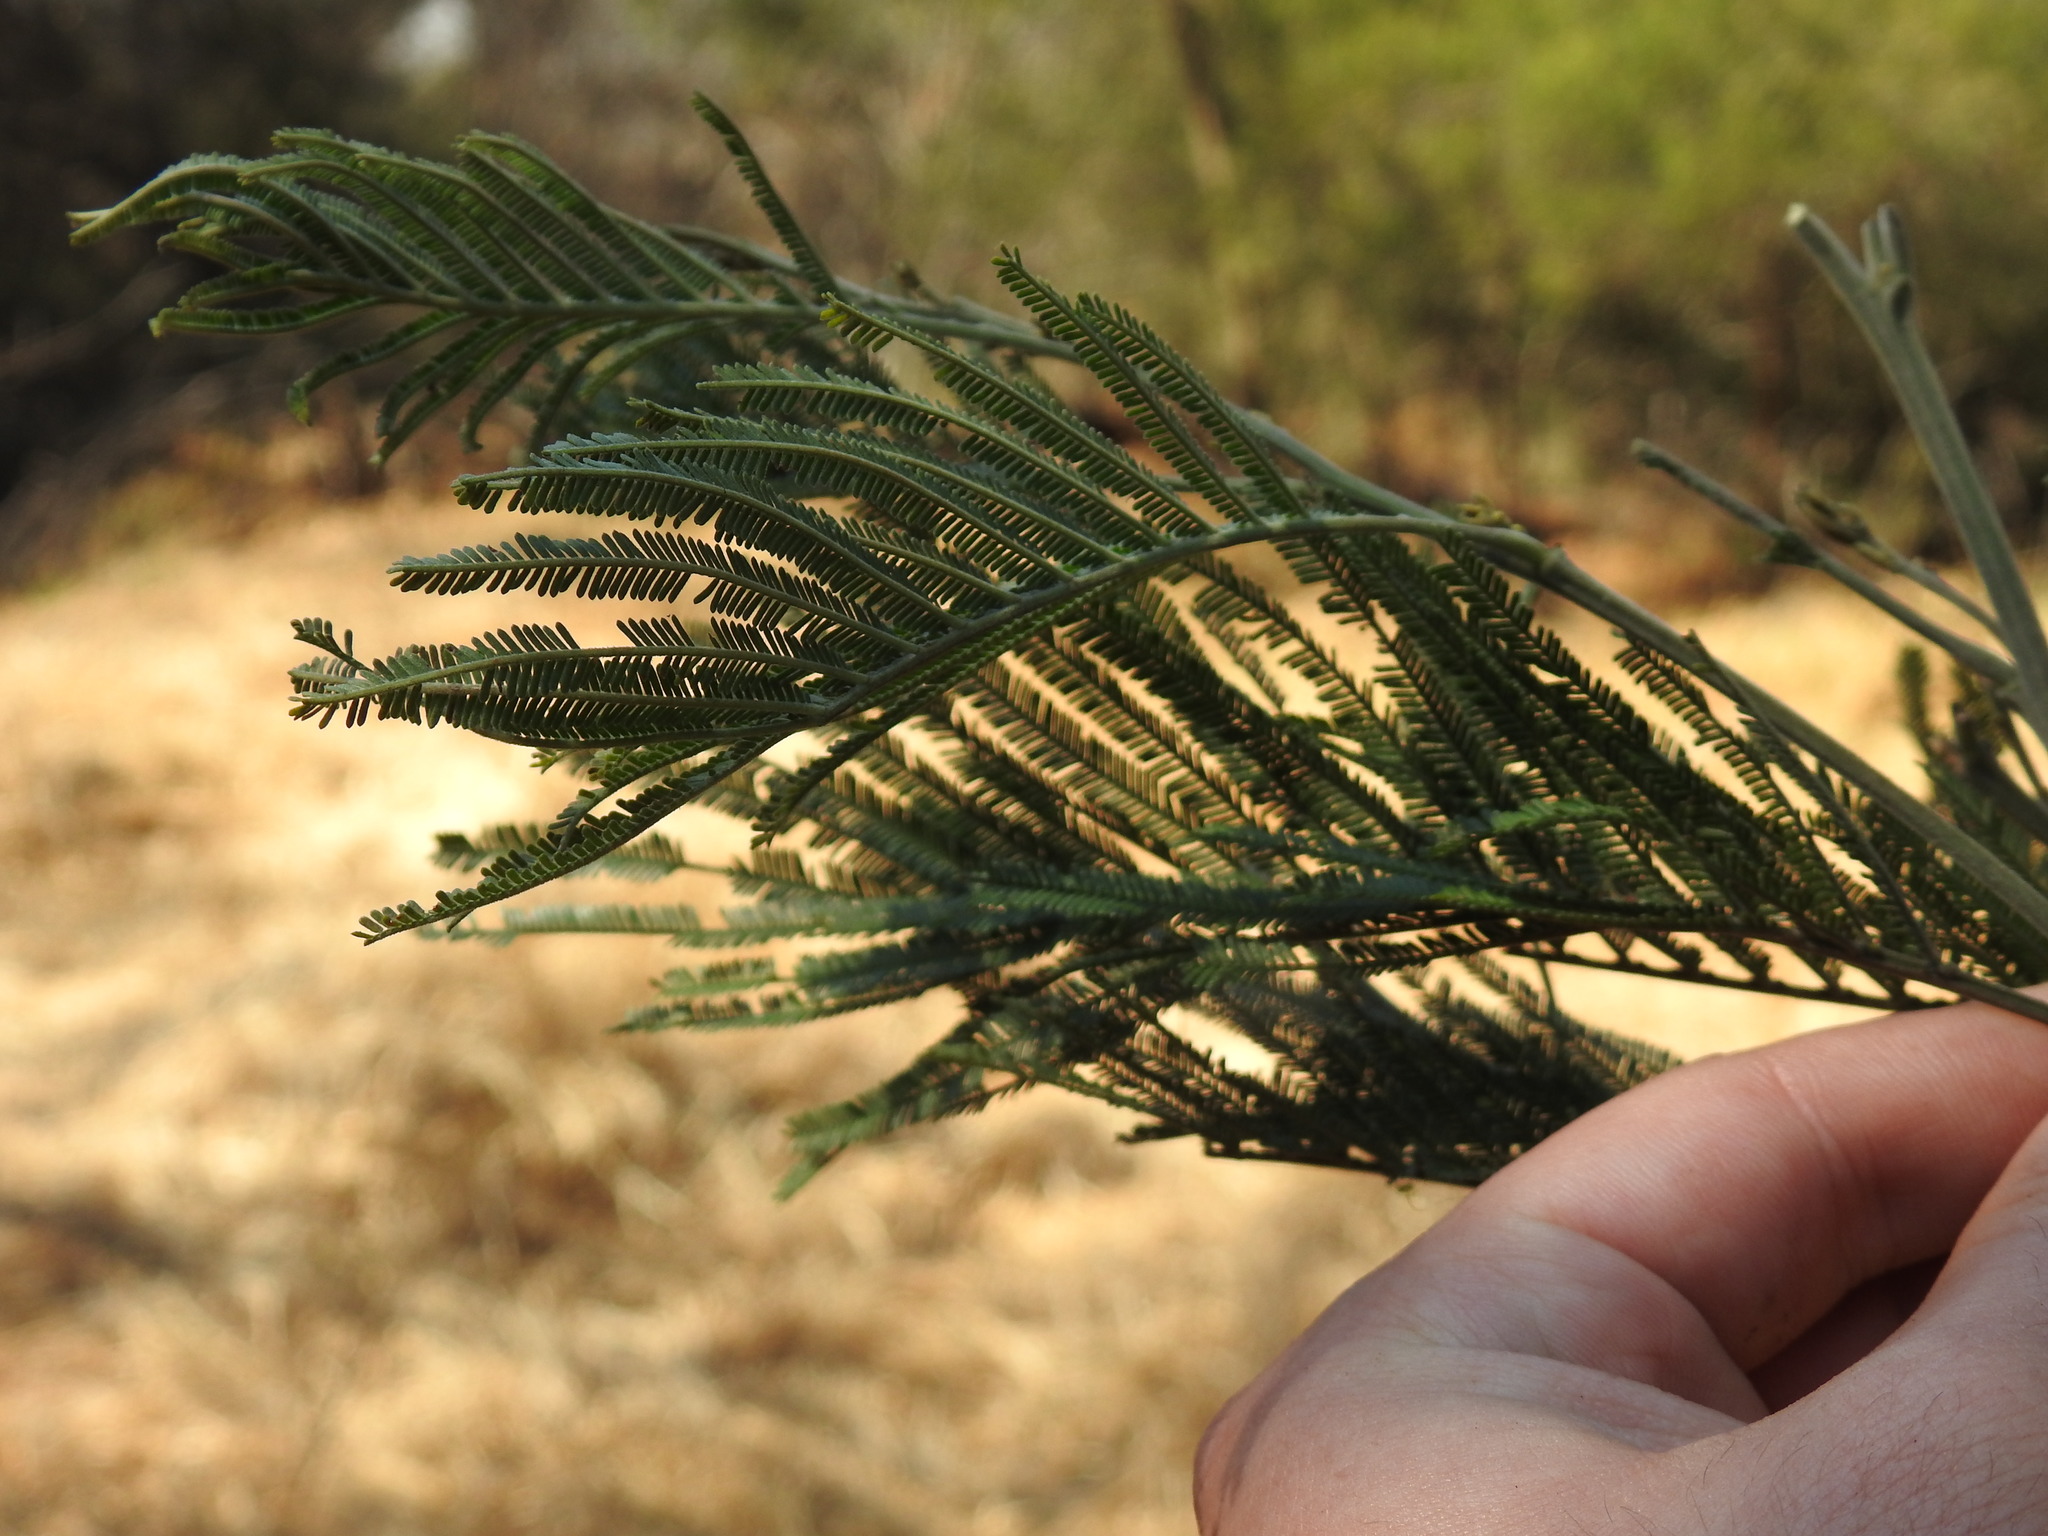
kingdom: Plantae
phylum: Tracheophyta
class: Magnoliopsida
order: Fabales
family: Fabaceae
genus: Acacia
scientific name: Acacia decurrens
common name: Green wattle
